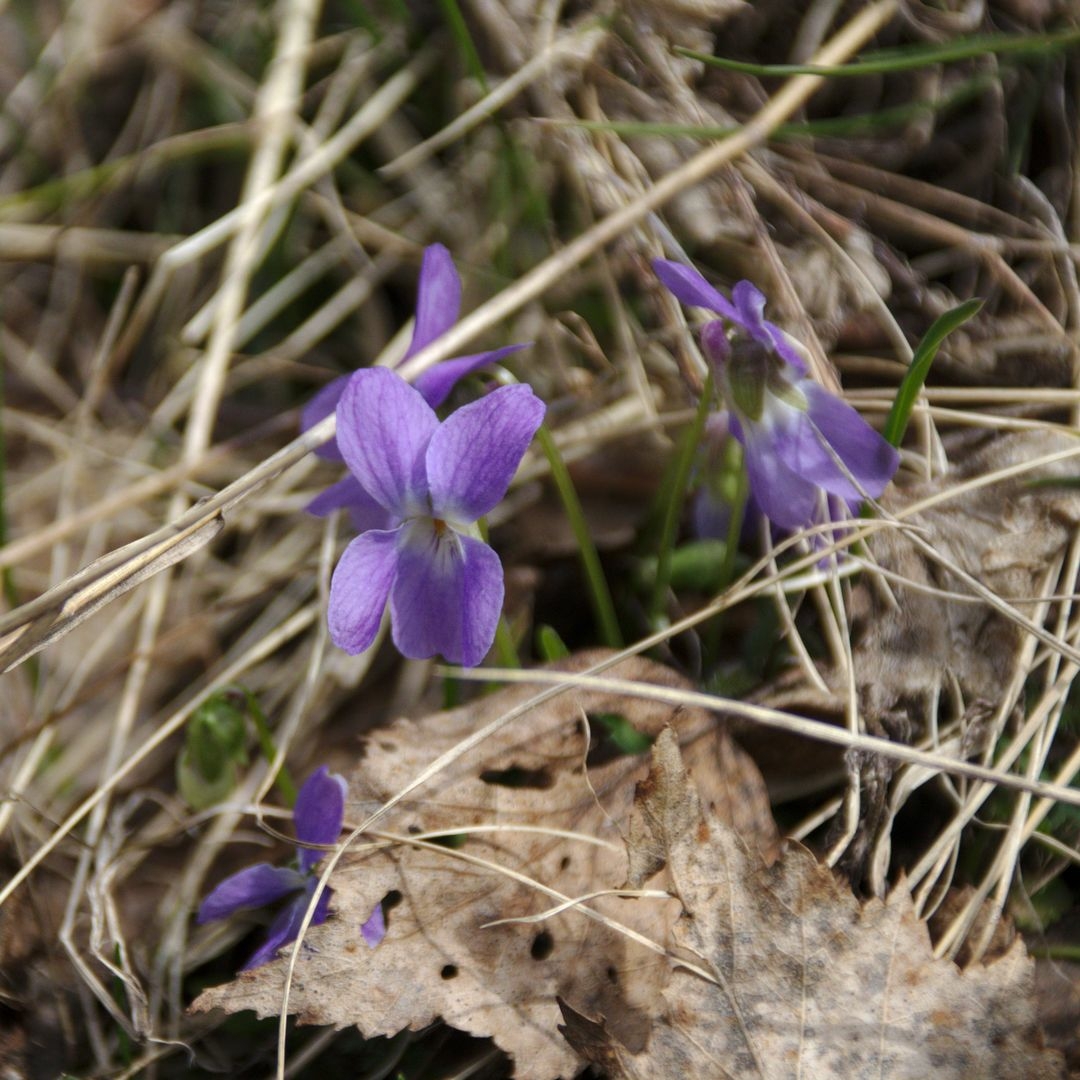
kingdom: Plantae
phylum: Tracheophyta
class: Magnoliopsida
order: Malpighiales
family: Violaceae
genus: Viola
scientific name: Viola hirta
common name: Hairy violet
